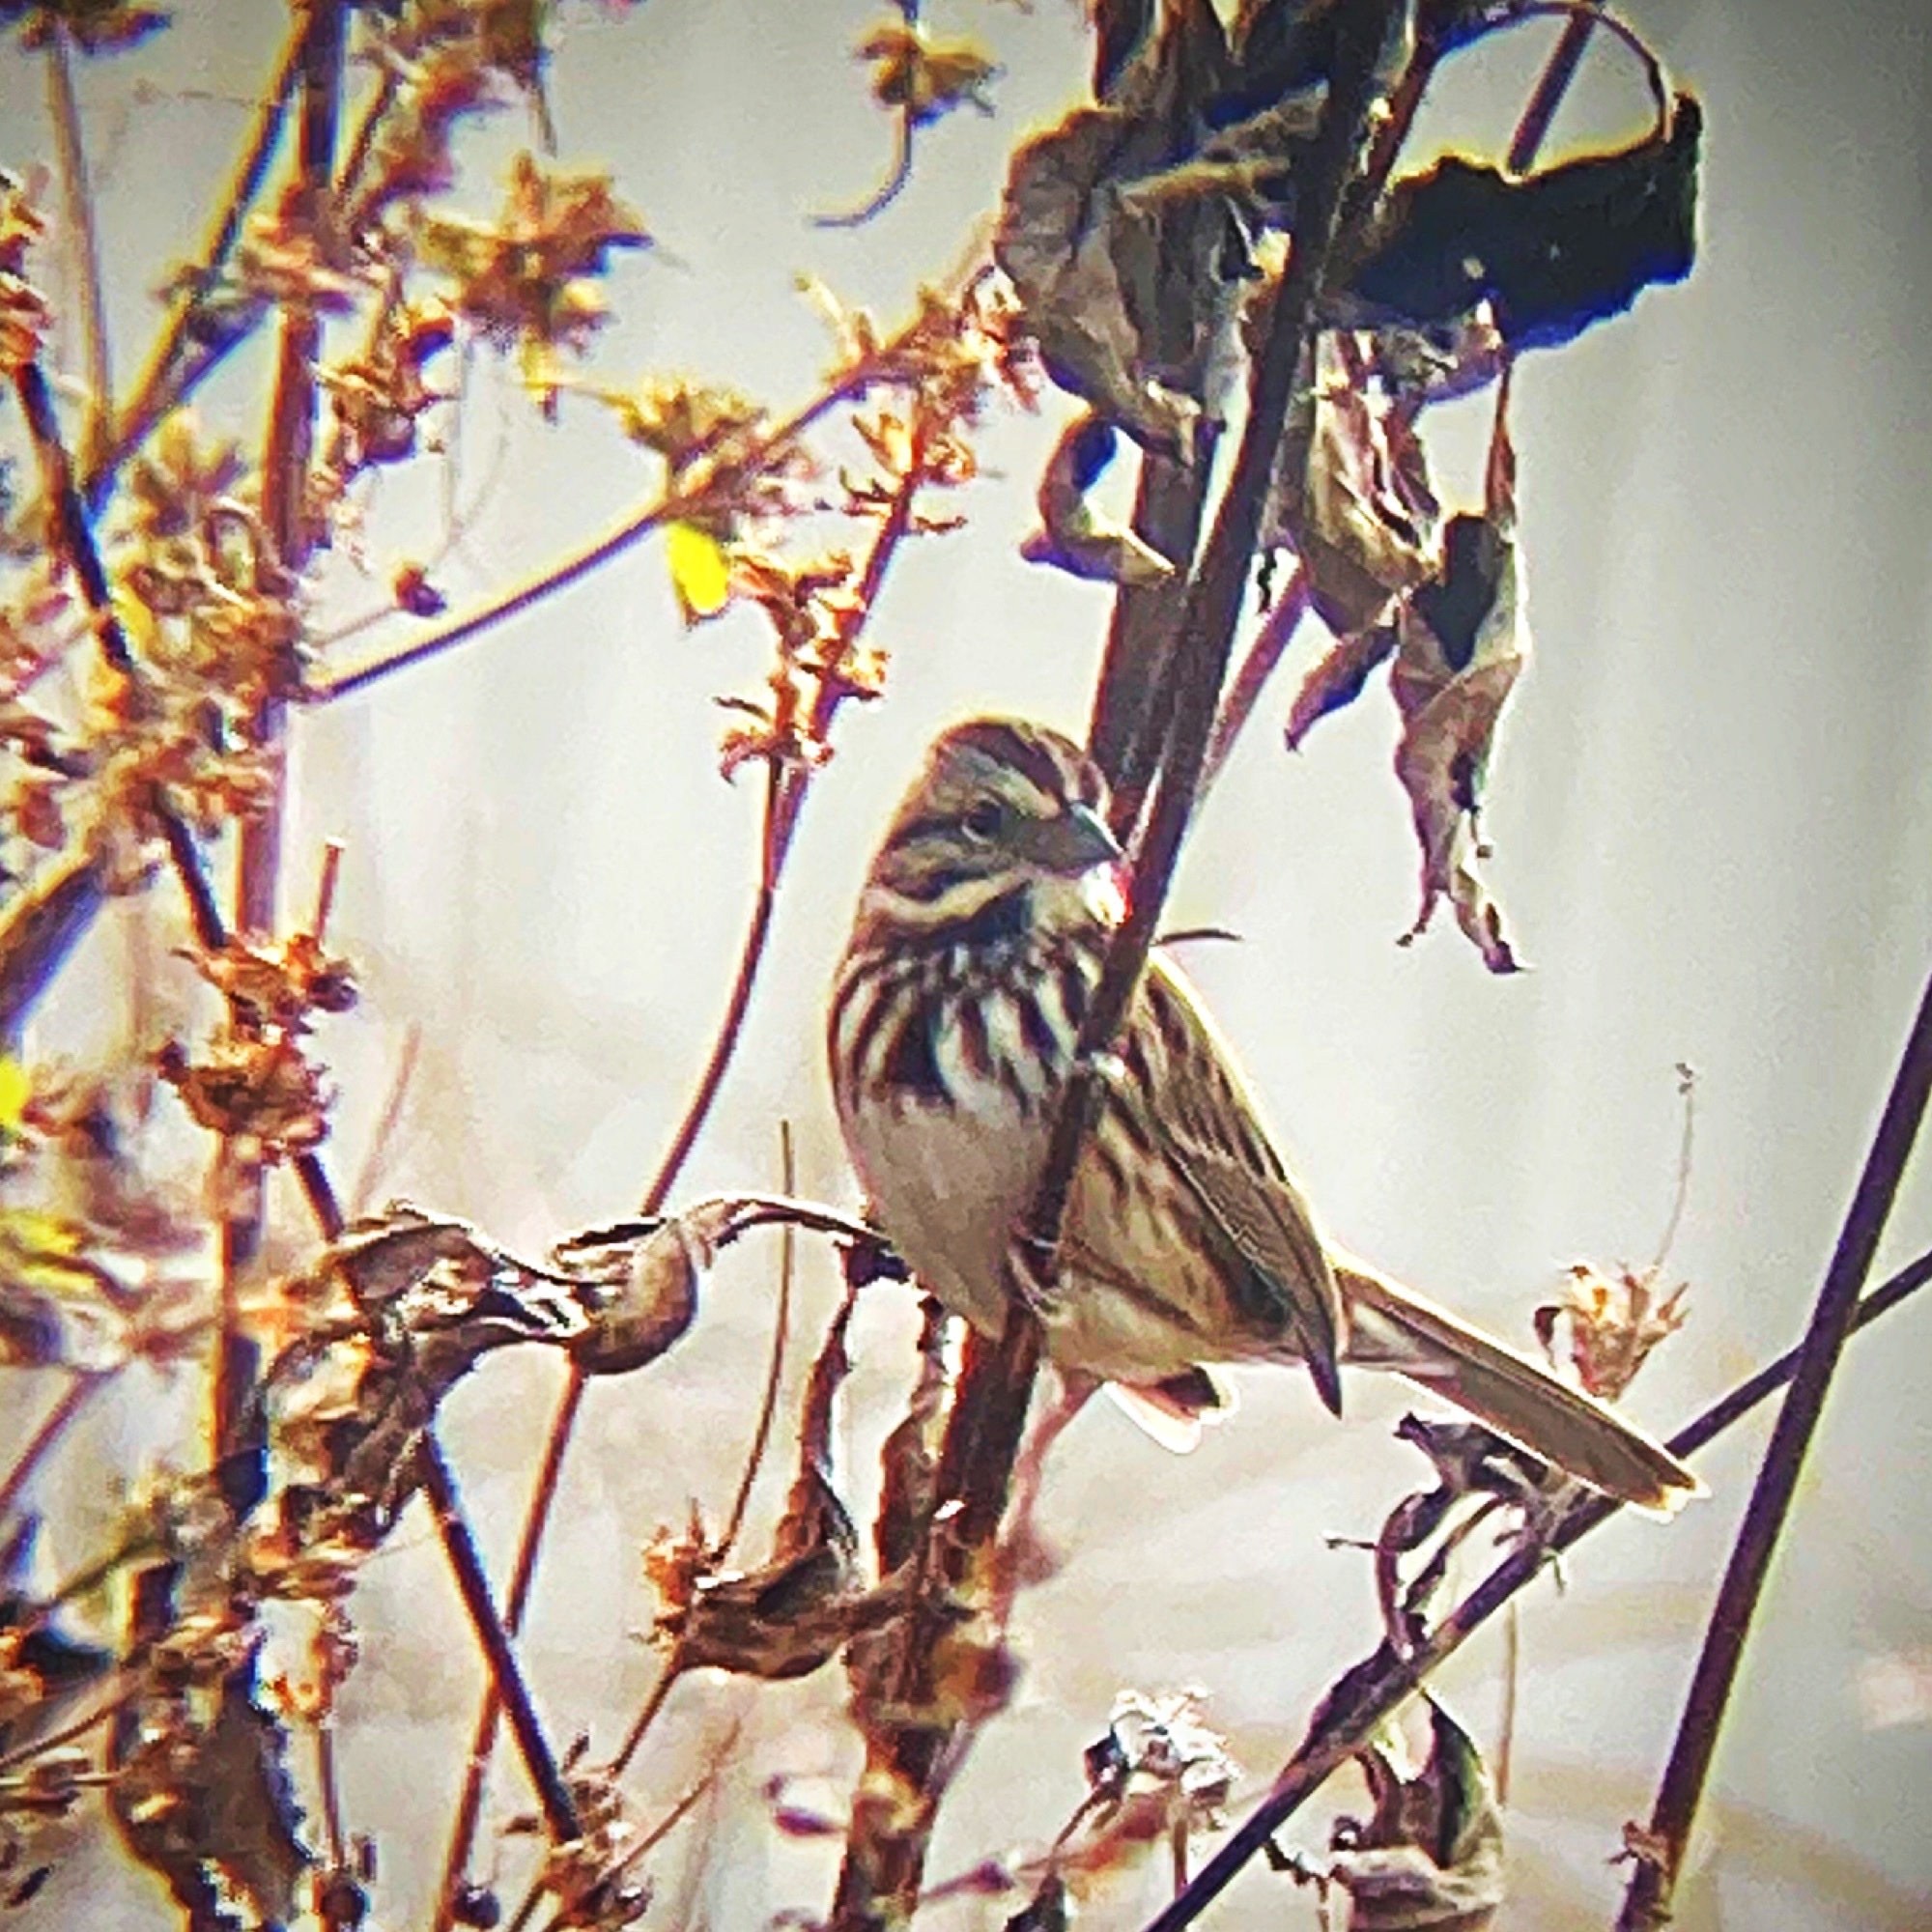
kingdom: Animalia
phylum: Chordata
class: Aves
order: Passeriformes
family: Passerellidae
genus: Melospiza
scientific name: Melospiza melodia
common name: Song sparrow
